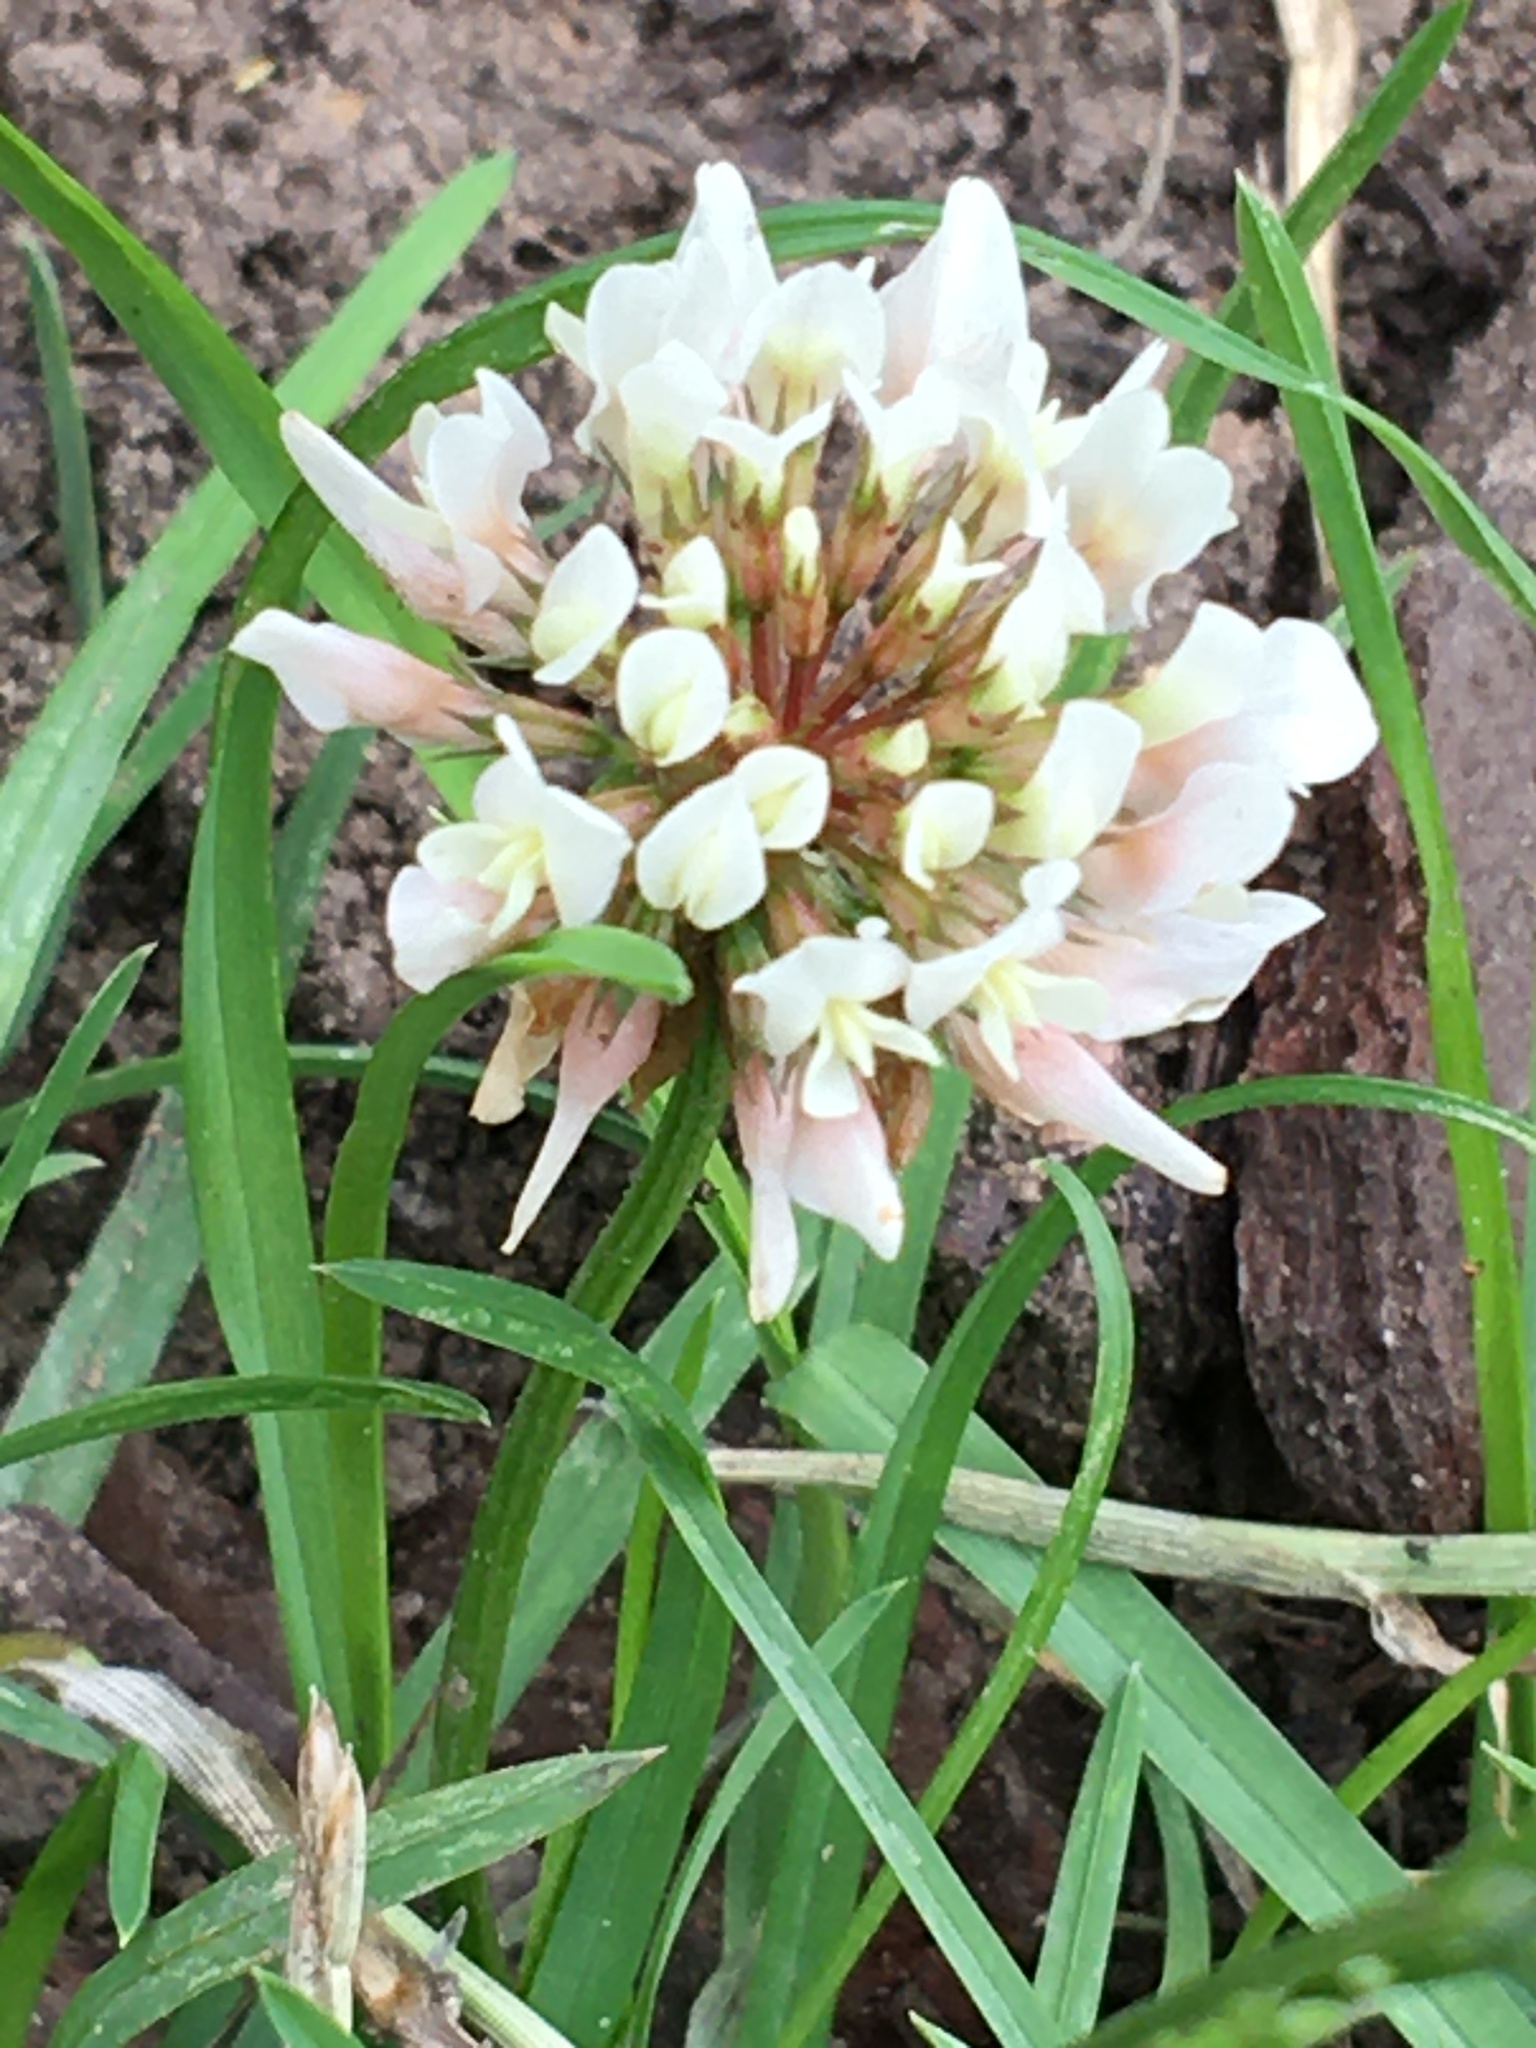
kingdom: Plantae
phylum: Tracheophyta
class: Magnoliopsida
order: Fabales
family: Fabaceae
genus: Trifolium
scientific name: Trifolium repens
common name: White clover
